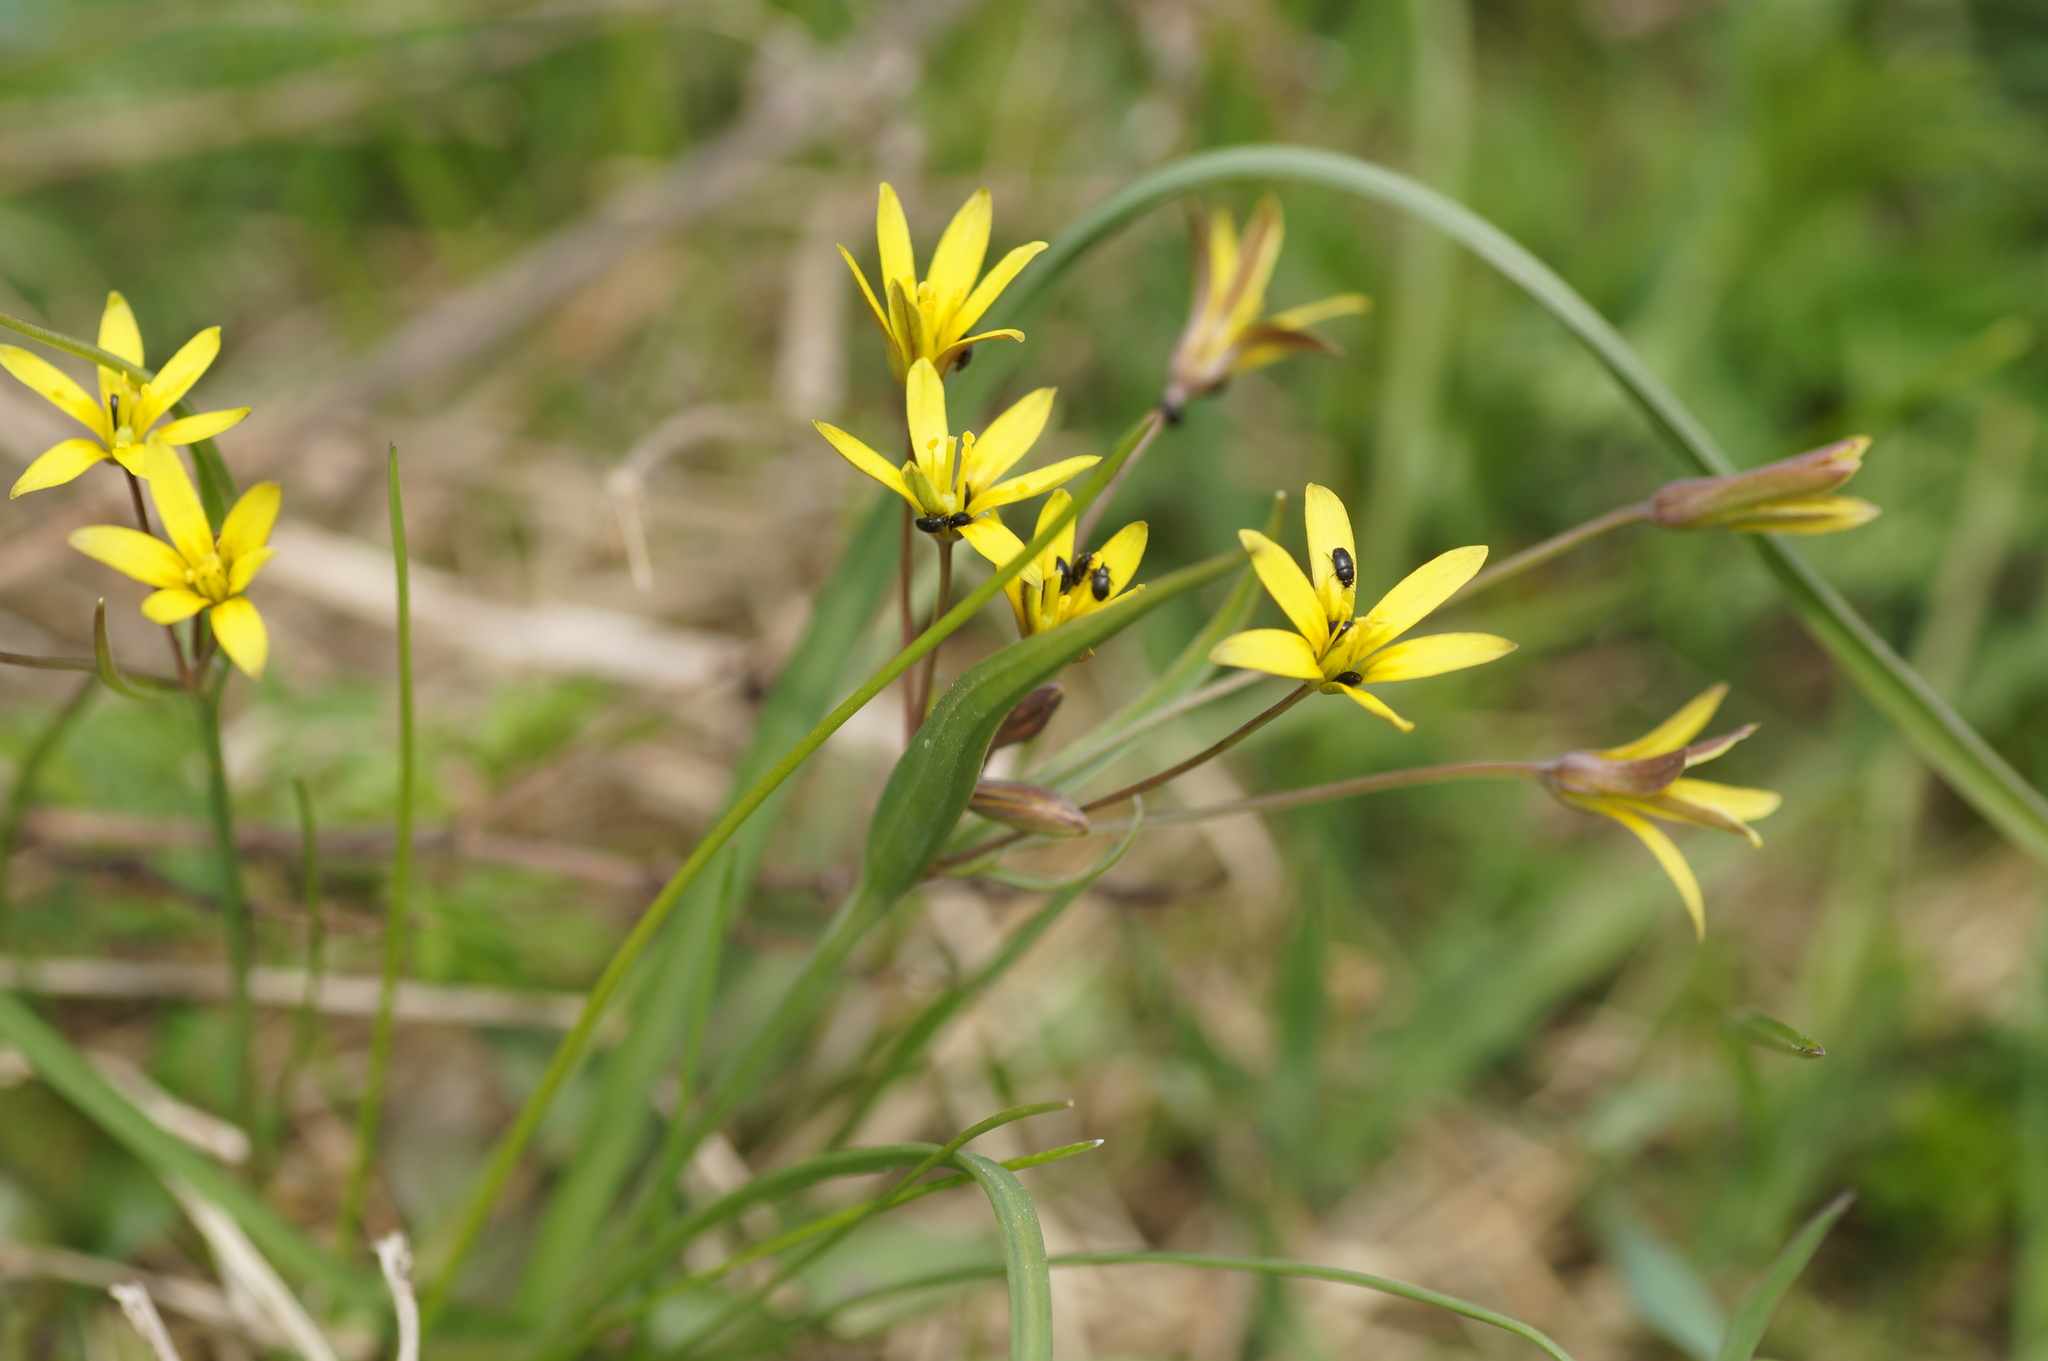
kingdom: Animalia
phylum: Arthropoda
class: Insecta
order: Coleoptera
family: Nitidulidae
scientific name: Nitidulidae
